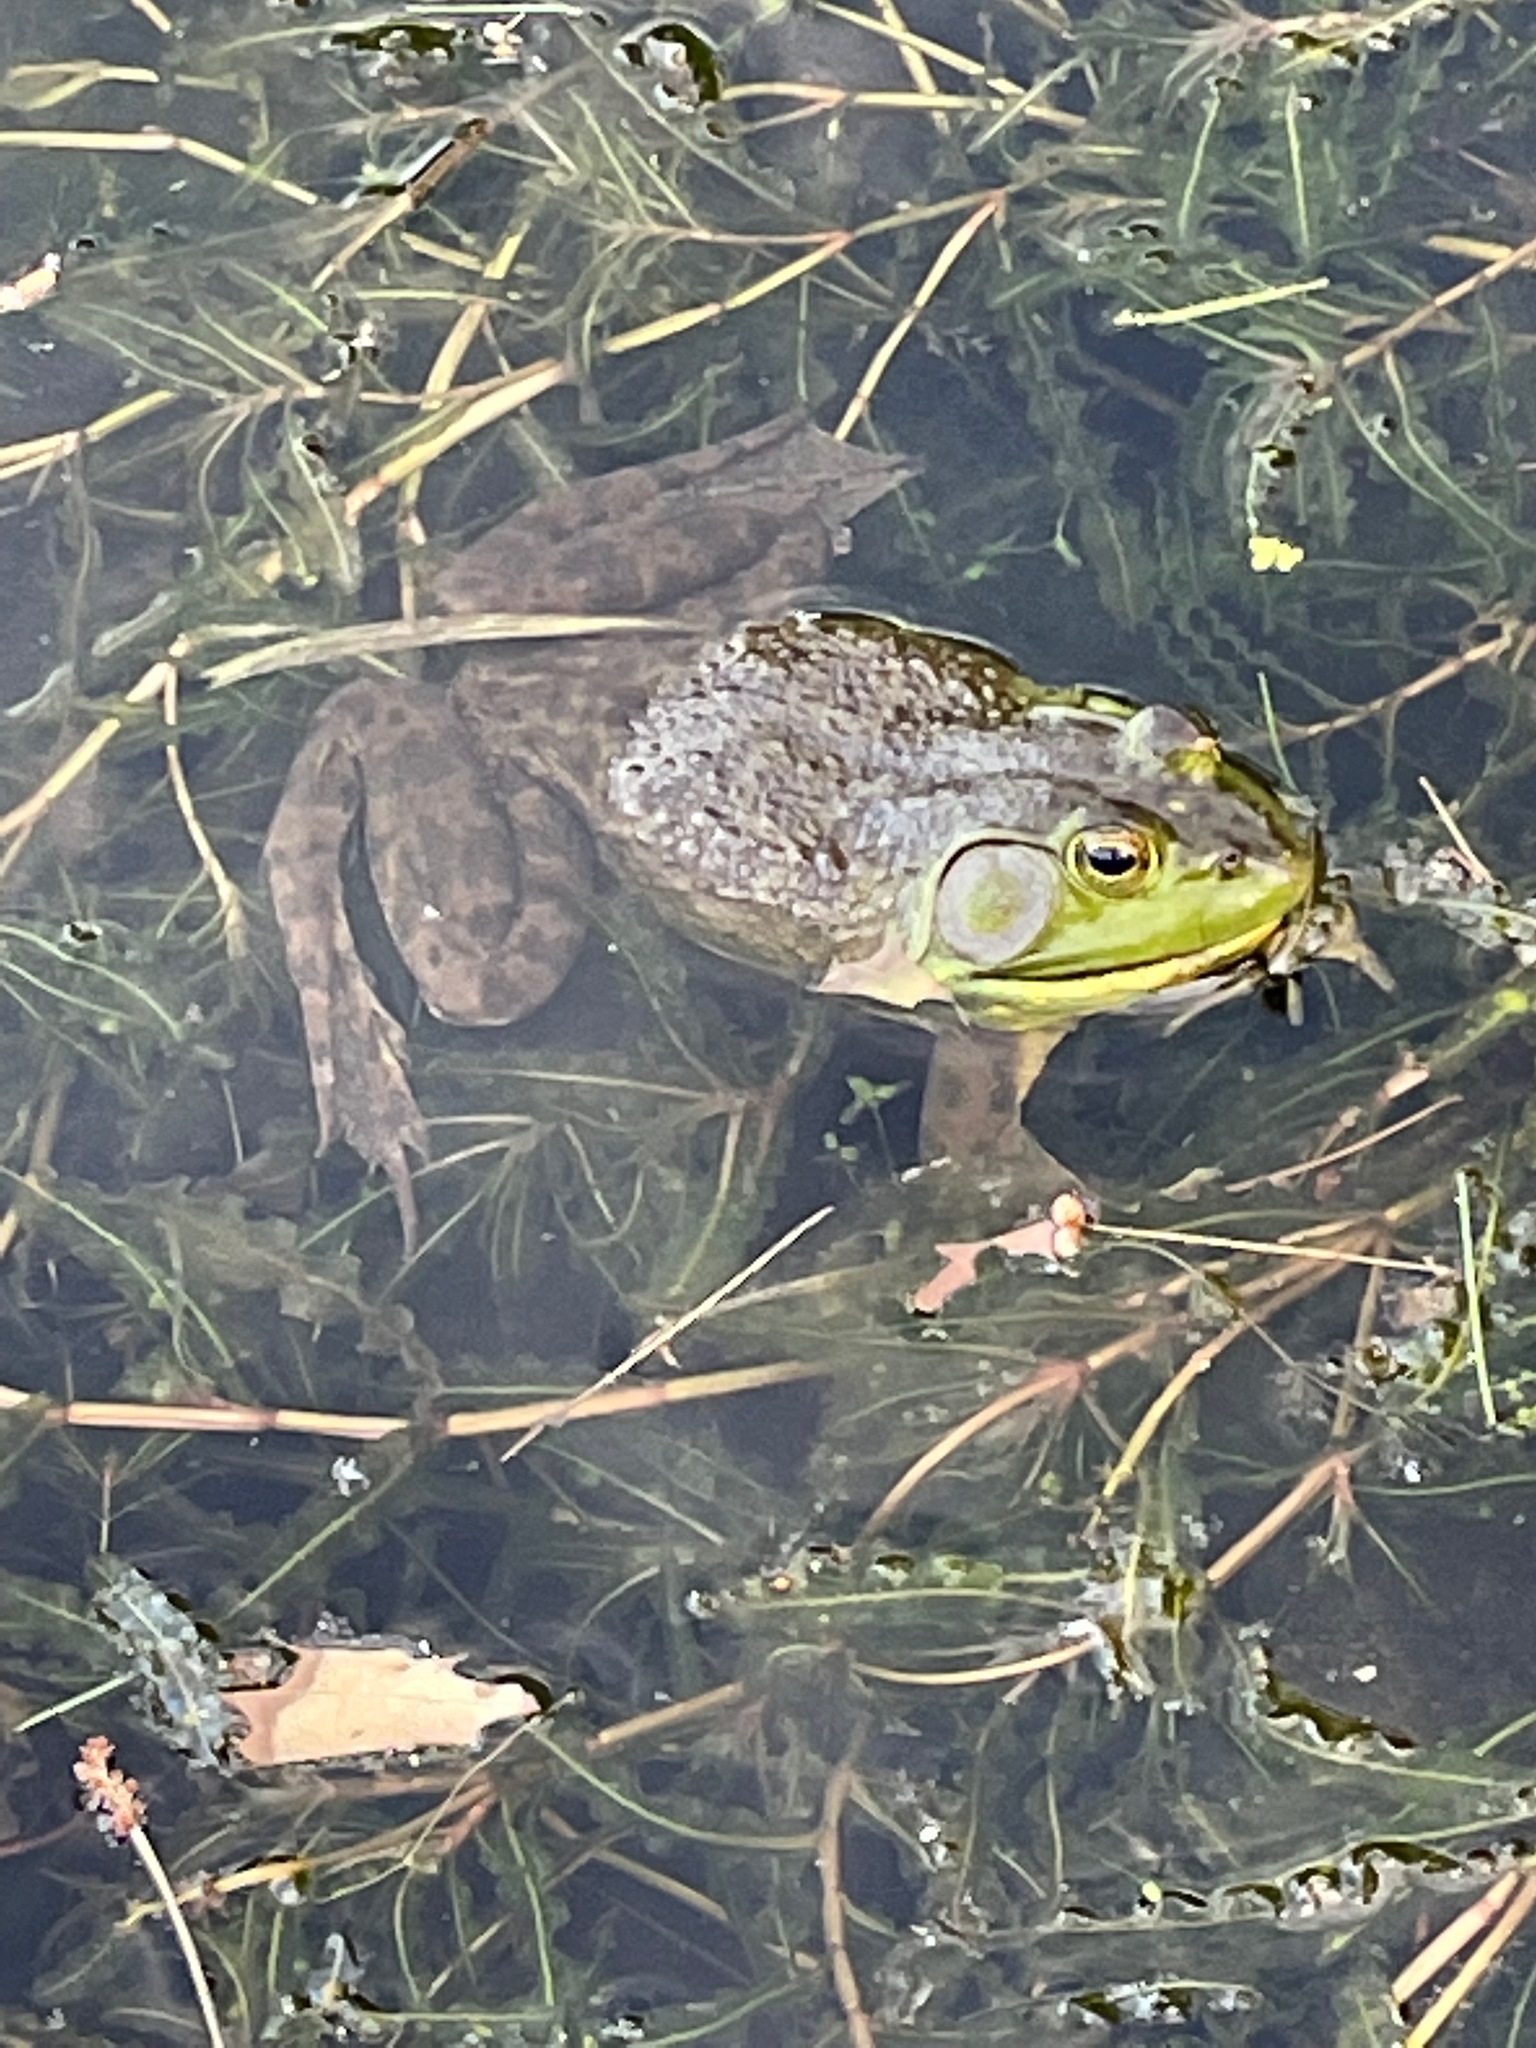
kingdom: Animalia
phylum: Chordata
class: Amphibia
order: Anura
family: Ranidae
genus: Lithobates
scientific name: Lithobates catesbeianus
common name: American bullfrog
